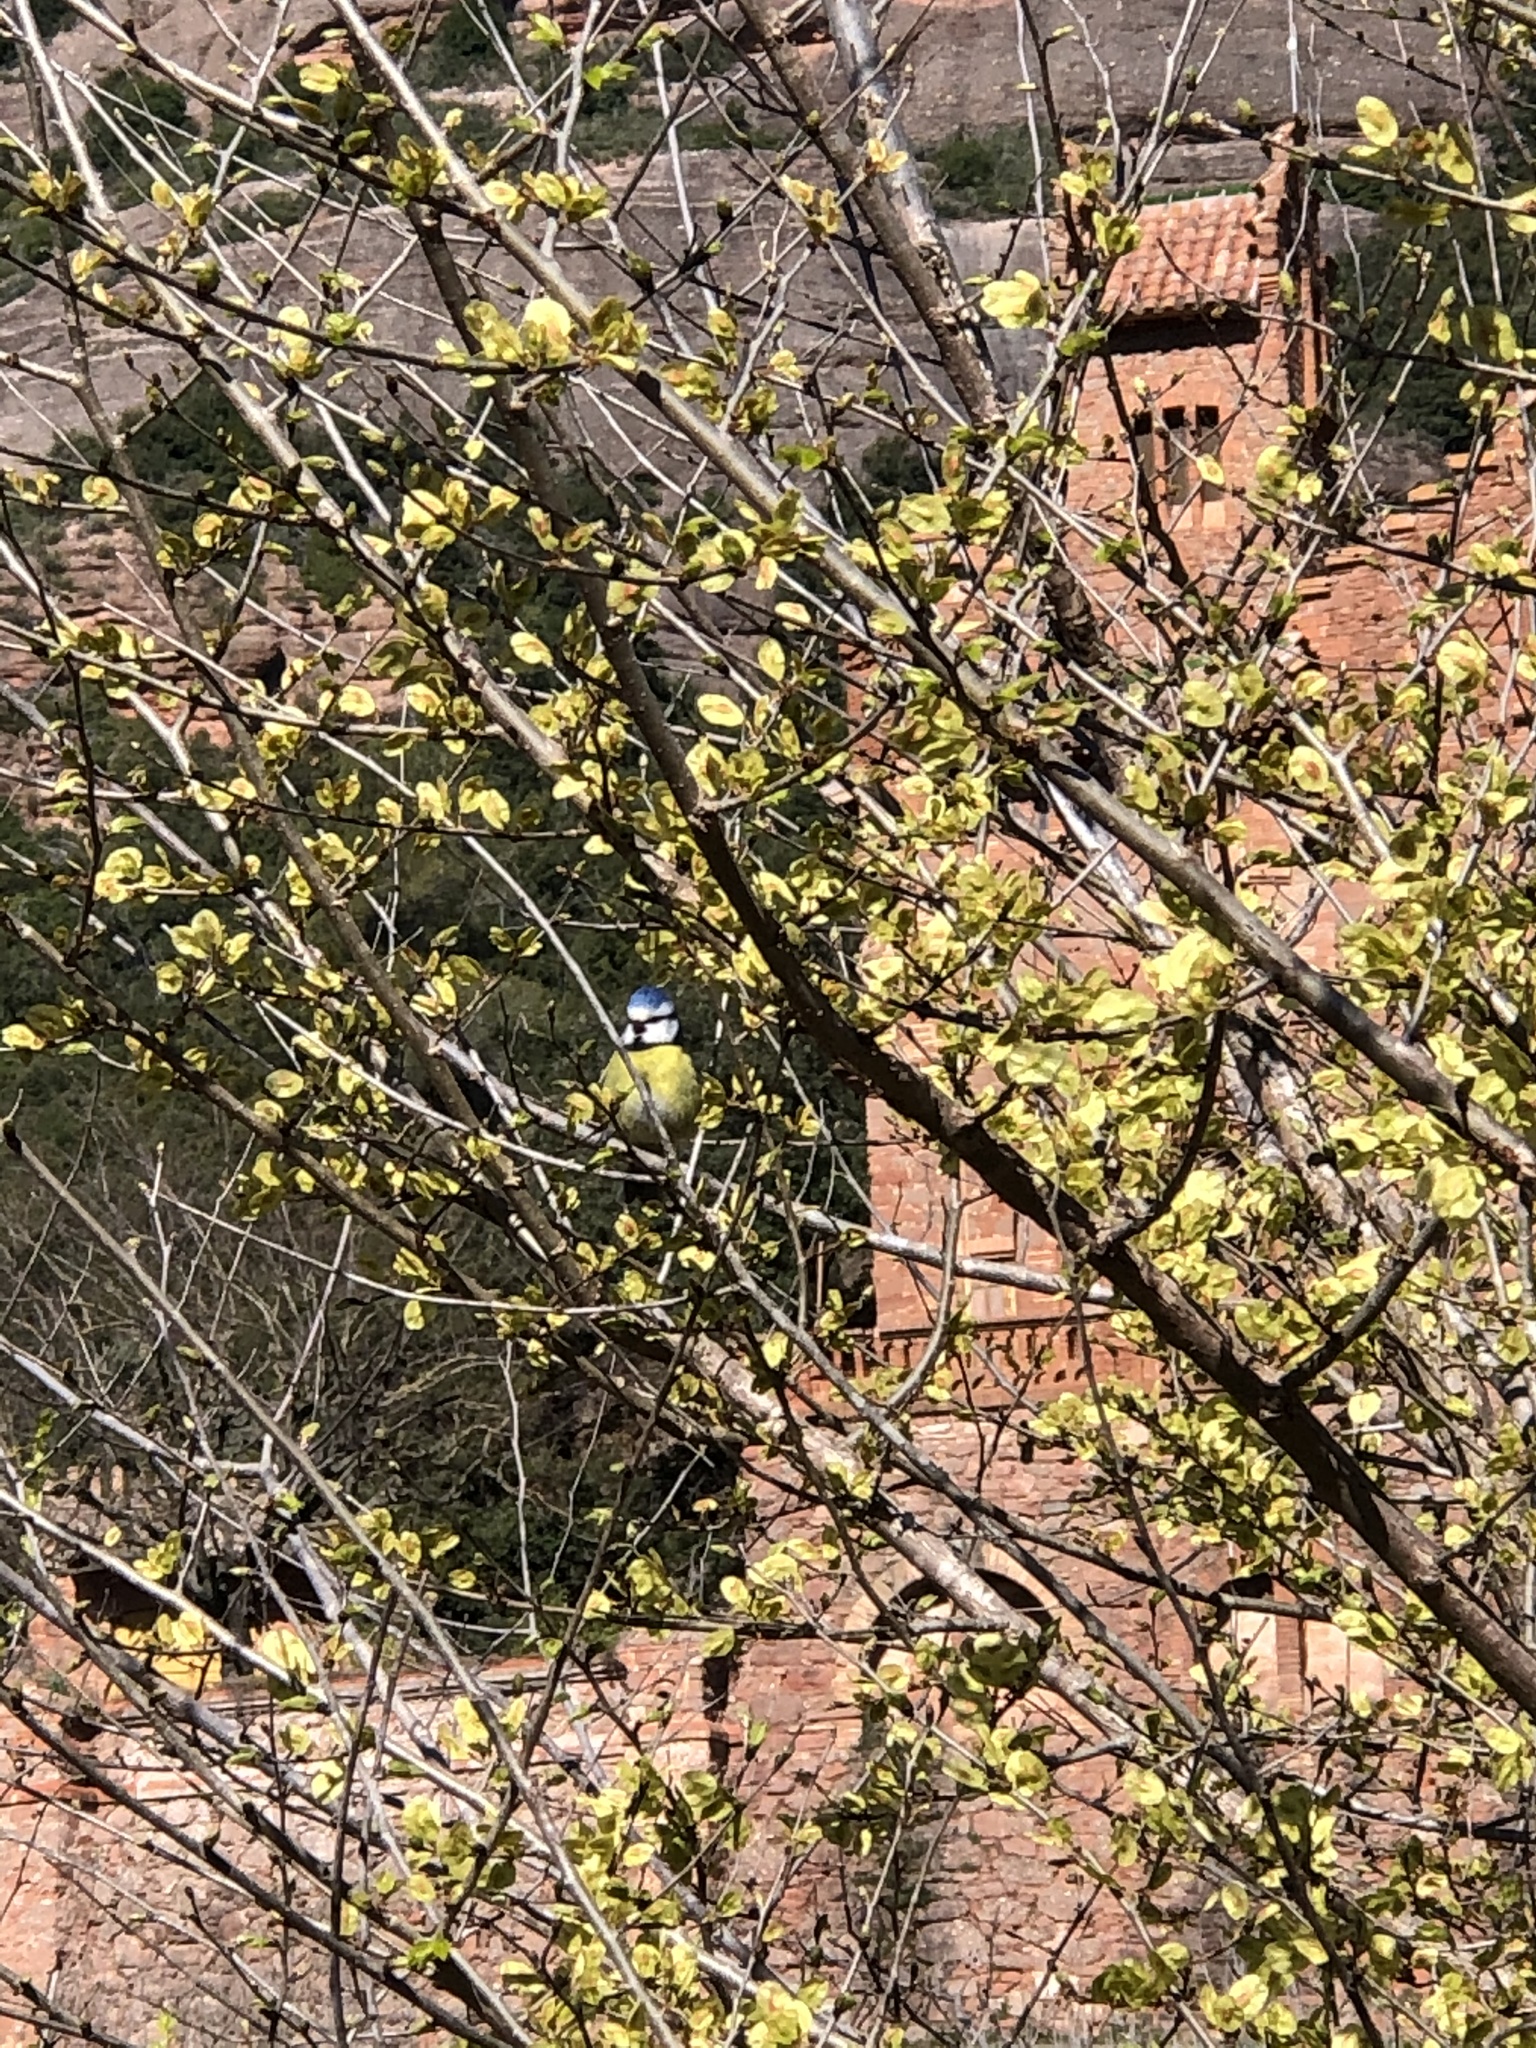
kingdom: Animalia
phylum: Chordata
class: Aves
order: Passeriformes
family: Paridae
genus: Cyanistes
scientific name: Cyanistes caeruleus
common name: Eurasian blue tit
